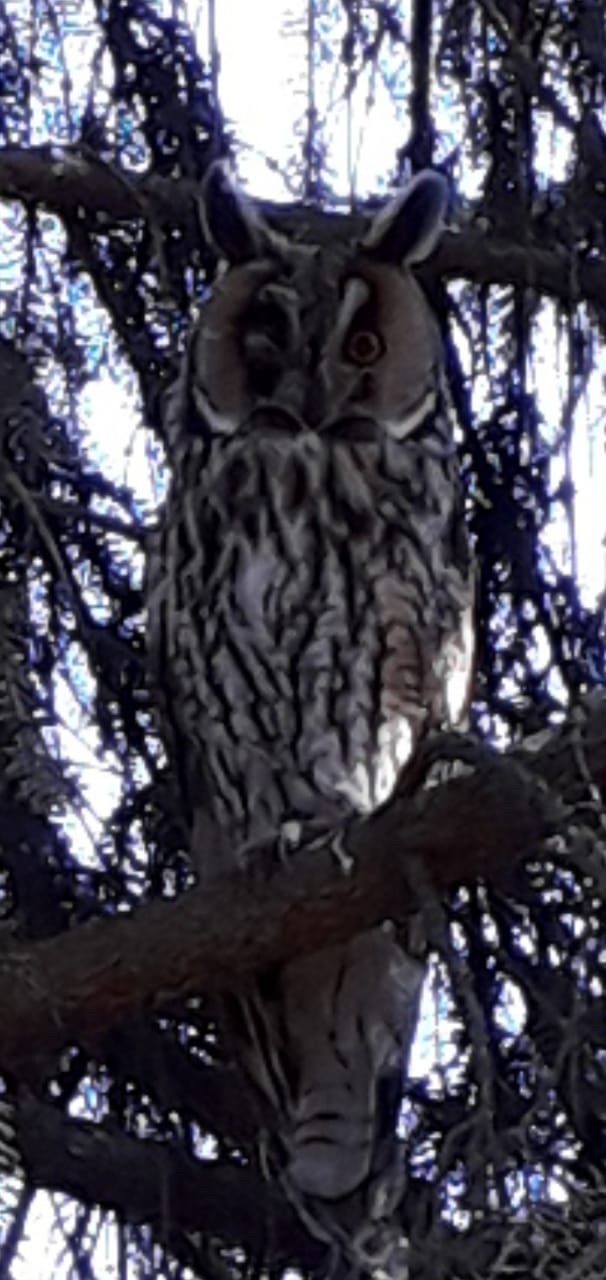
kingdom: Animalia
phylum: Chordata
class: Aves
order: Strigiformes
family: Strigidae
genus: Asio
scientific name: Asio otus
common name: Long-eared owl
